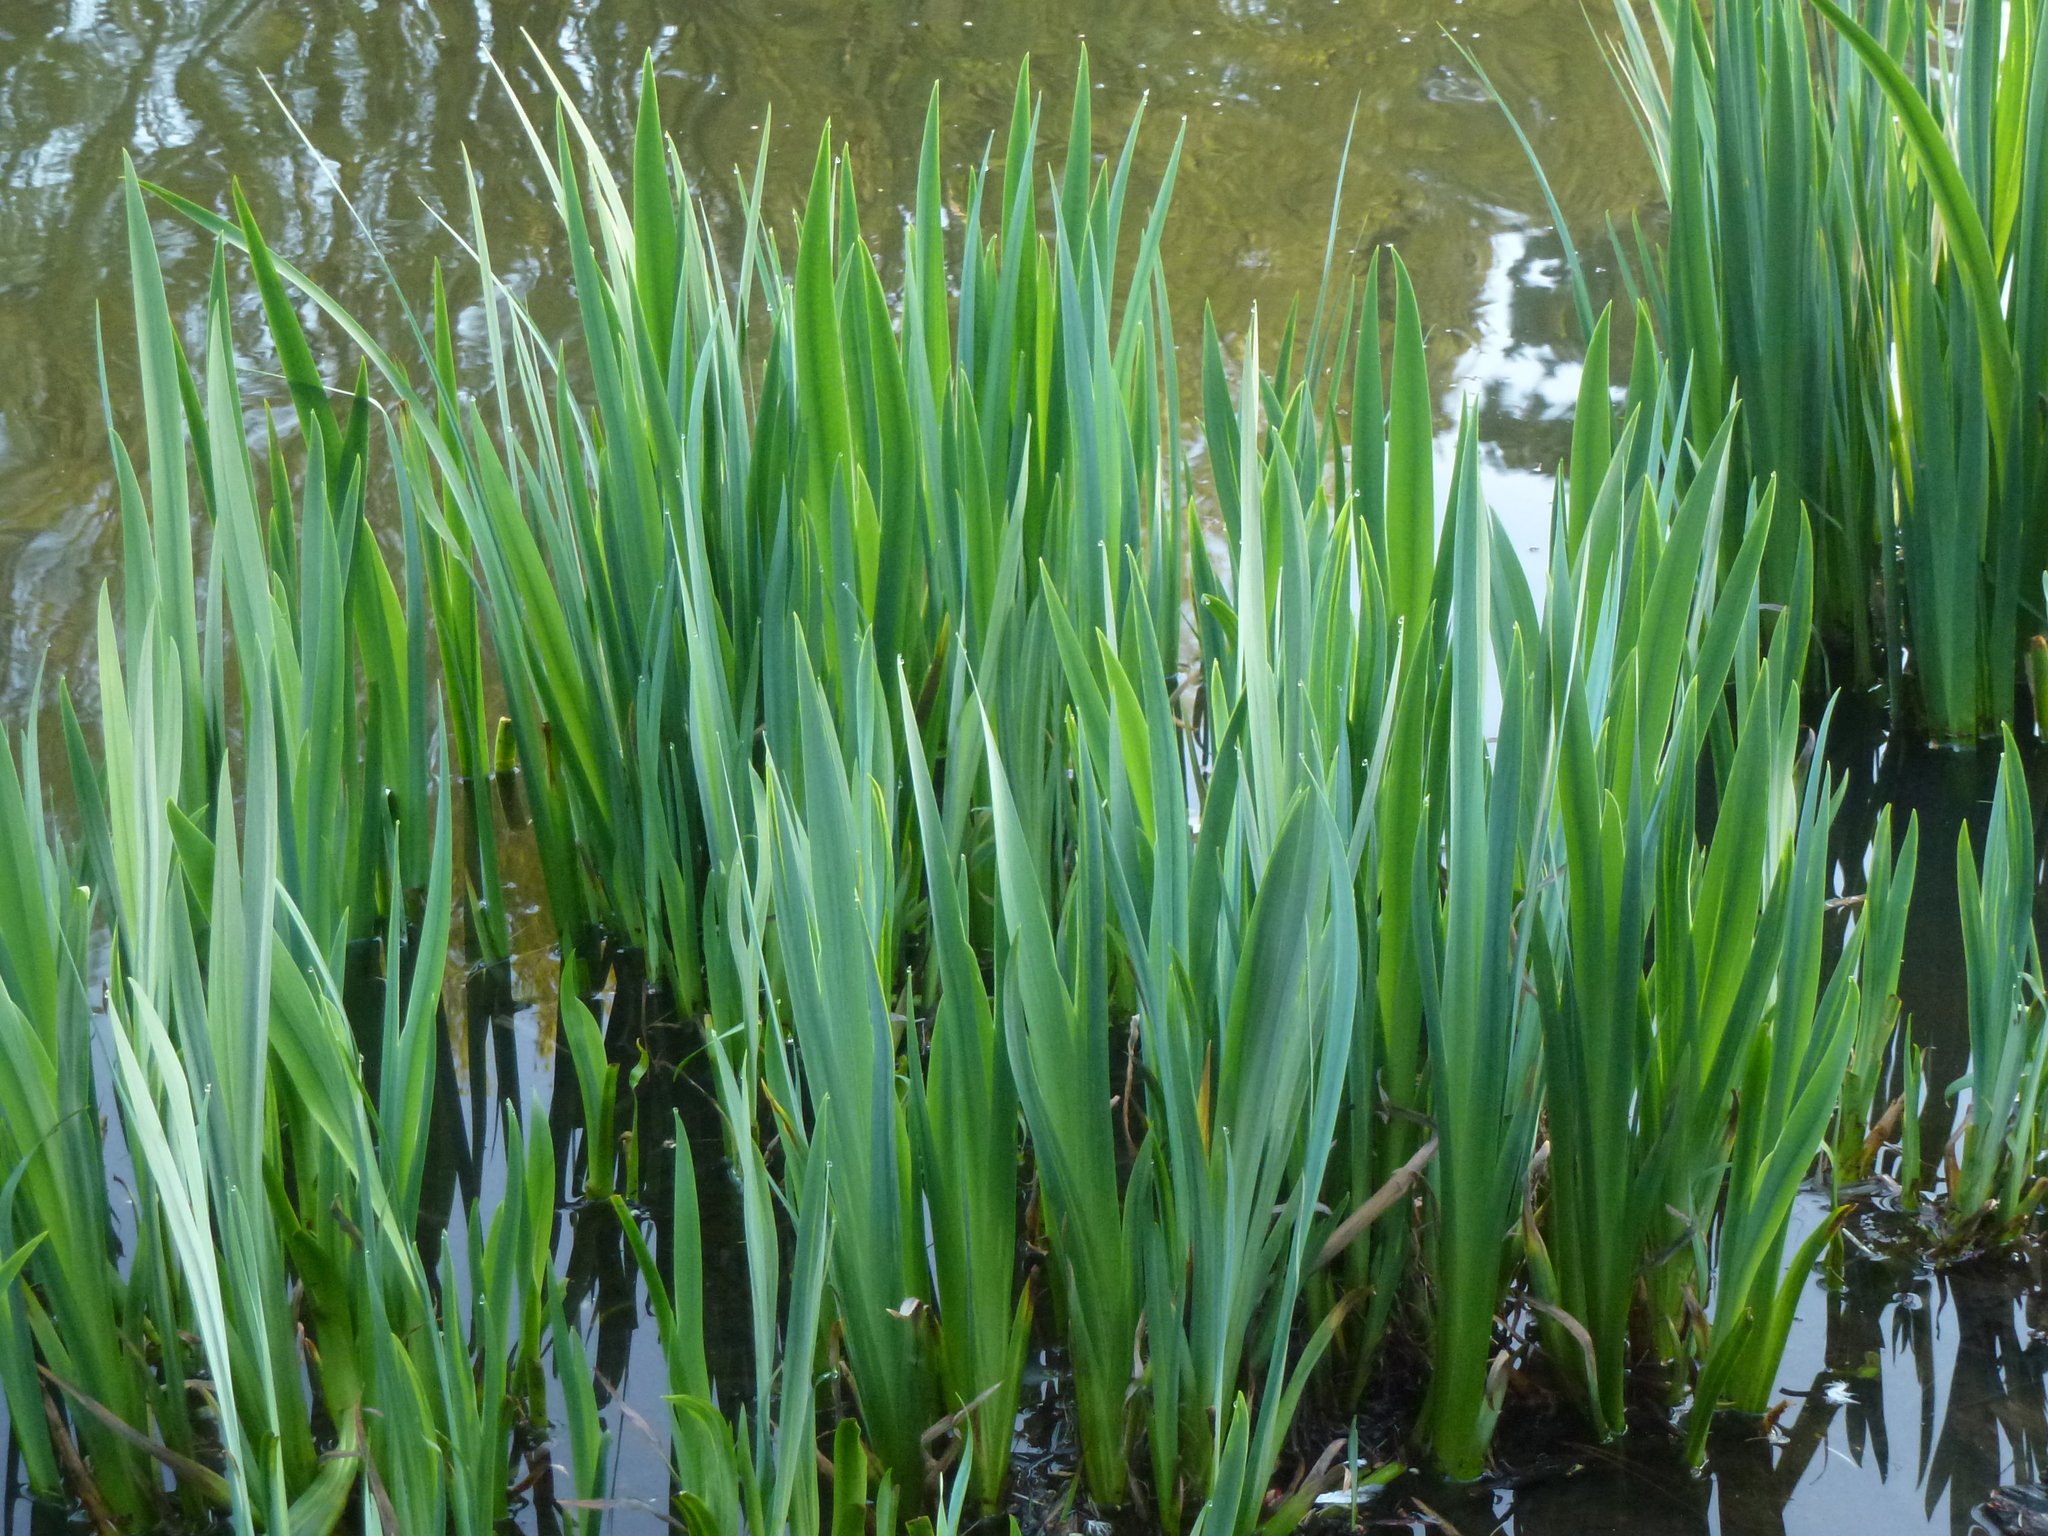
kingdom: Plantae
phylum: Tracheophyta
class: Liliopsida
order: Asparagales
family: Iridaceae
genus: Iris
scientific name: Iris pseudacorus
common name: Yellow flag
